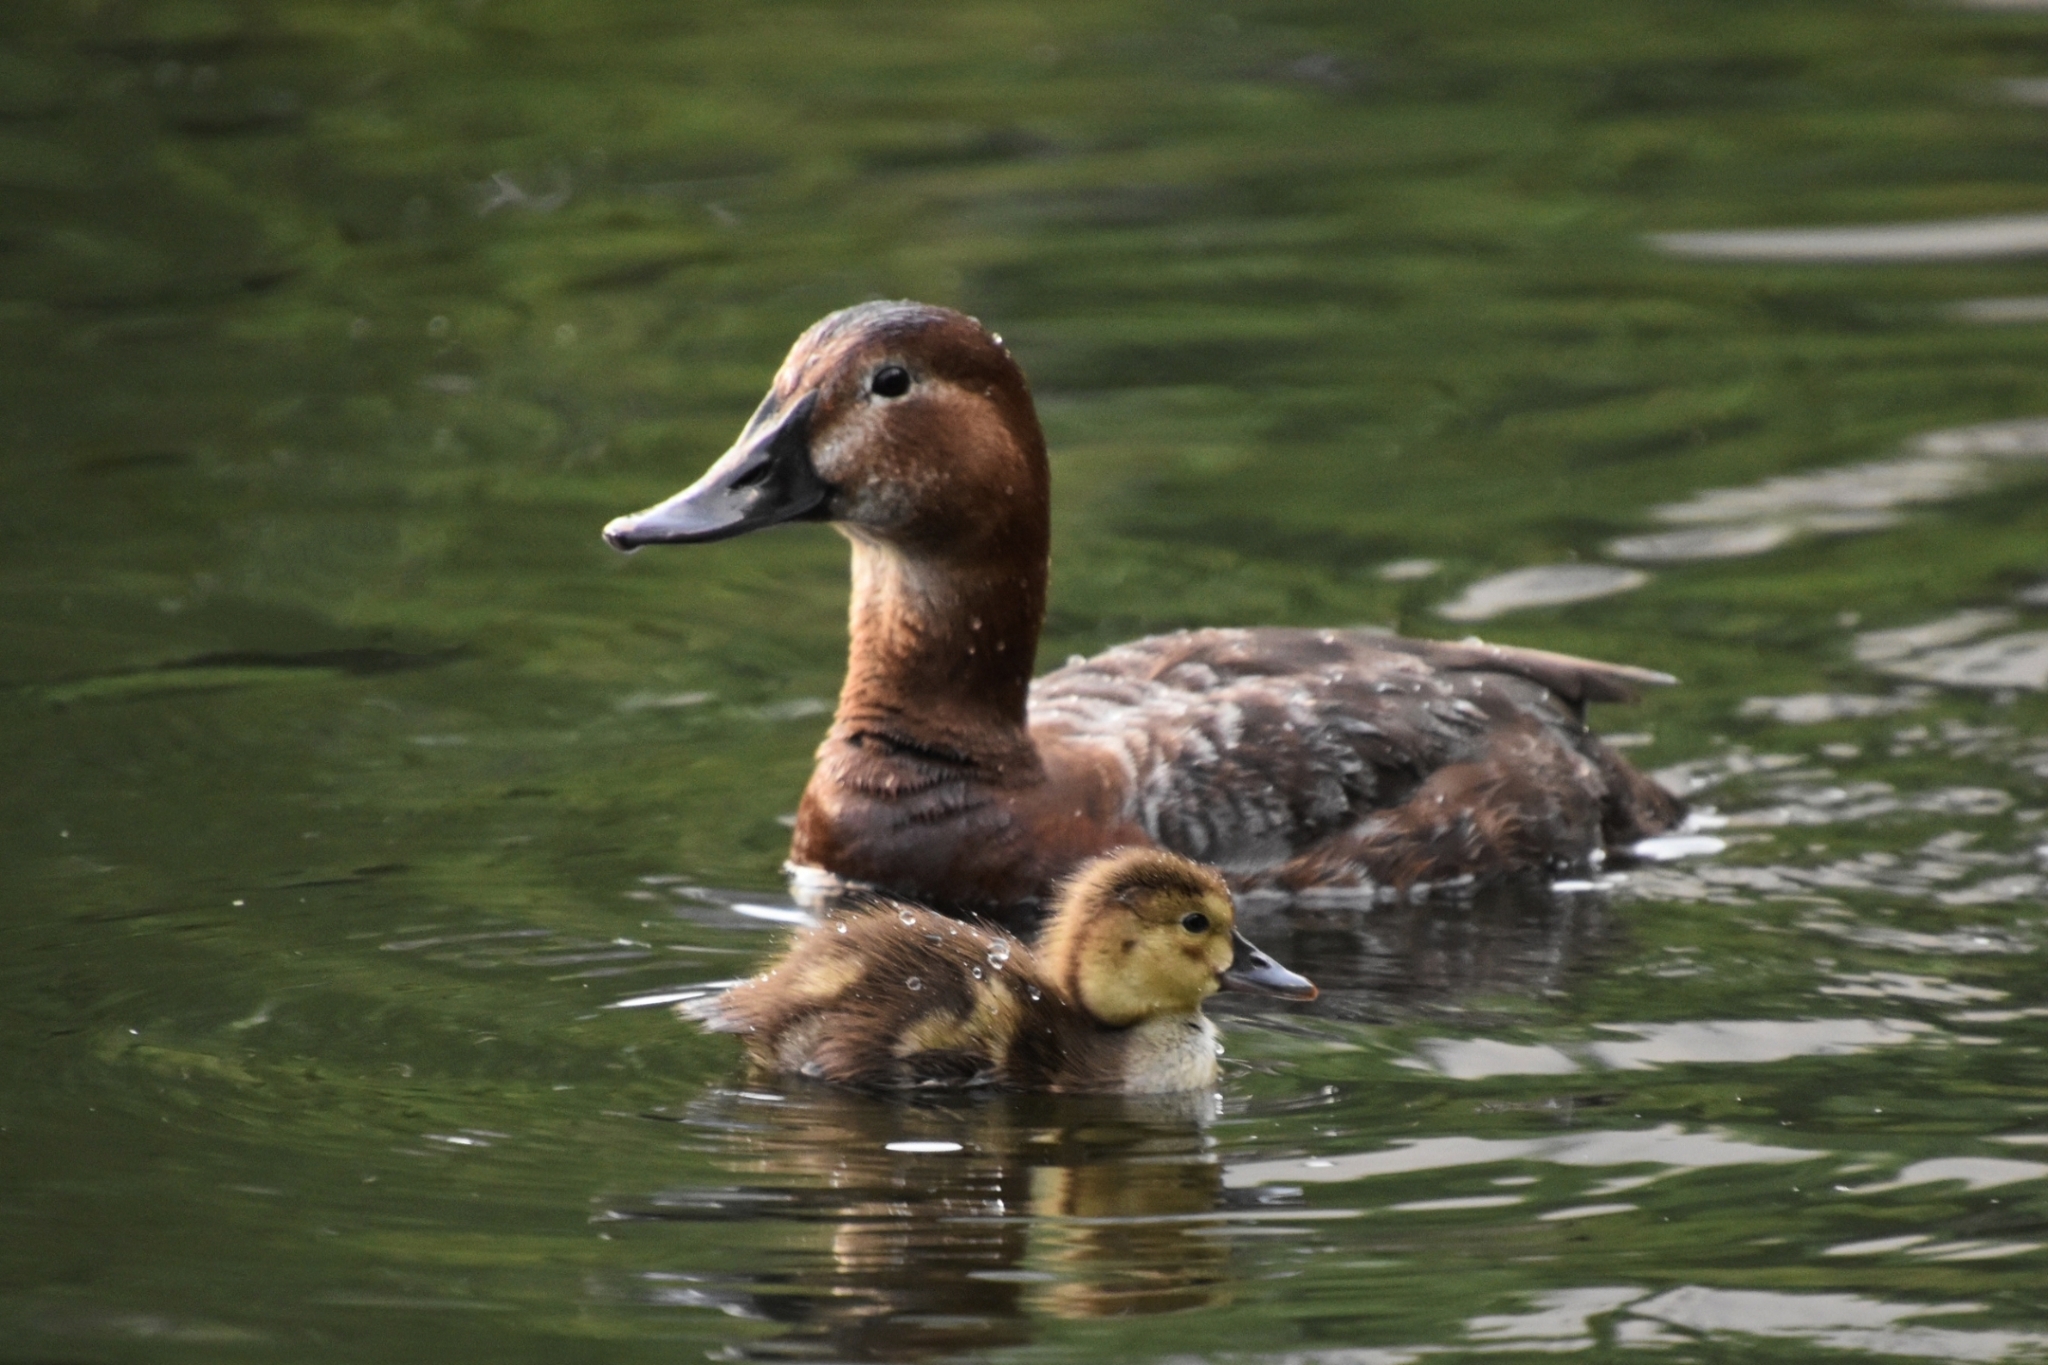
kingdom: Animalia
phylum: Chordata
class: Aves
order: Anseriformes
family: Anatidae
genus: Aythya
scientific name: Aythya ferina
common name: Common pochard
